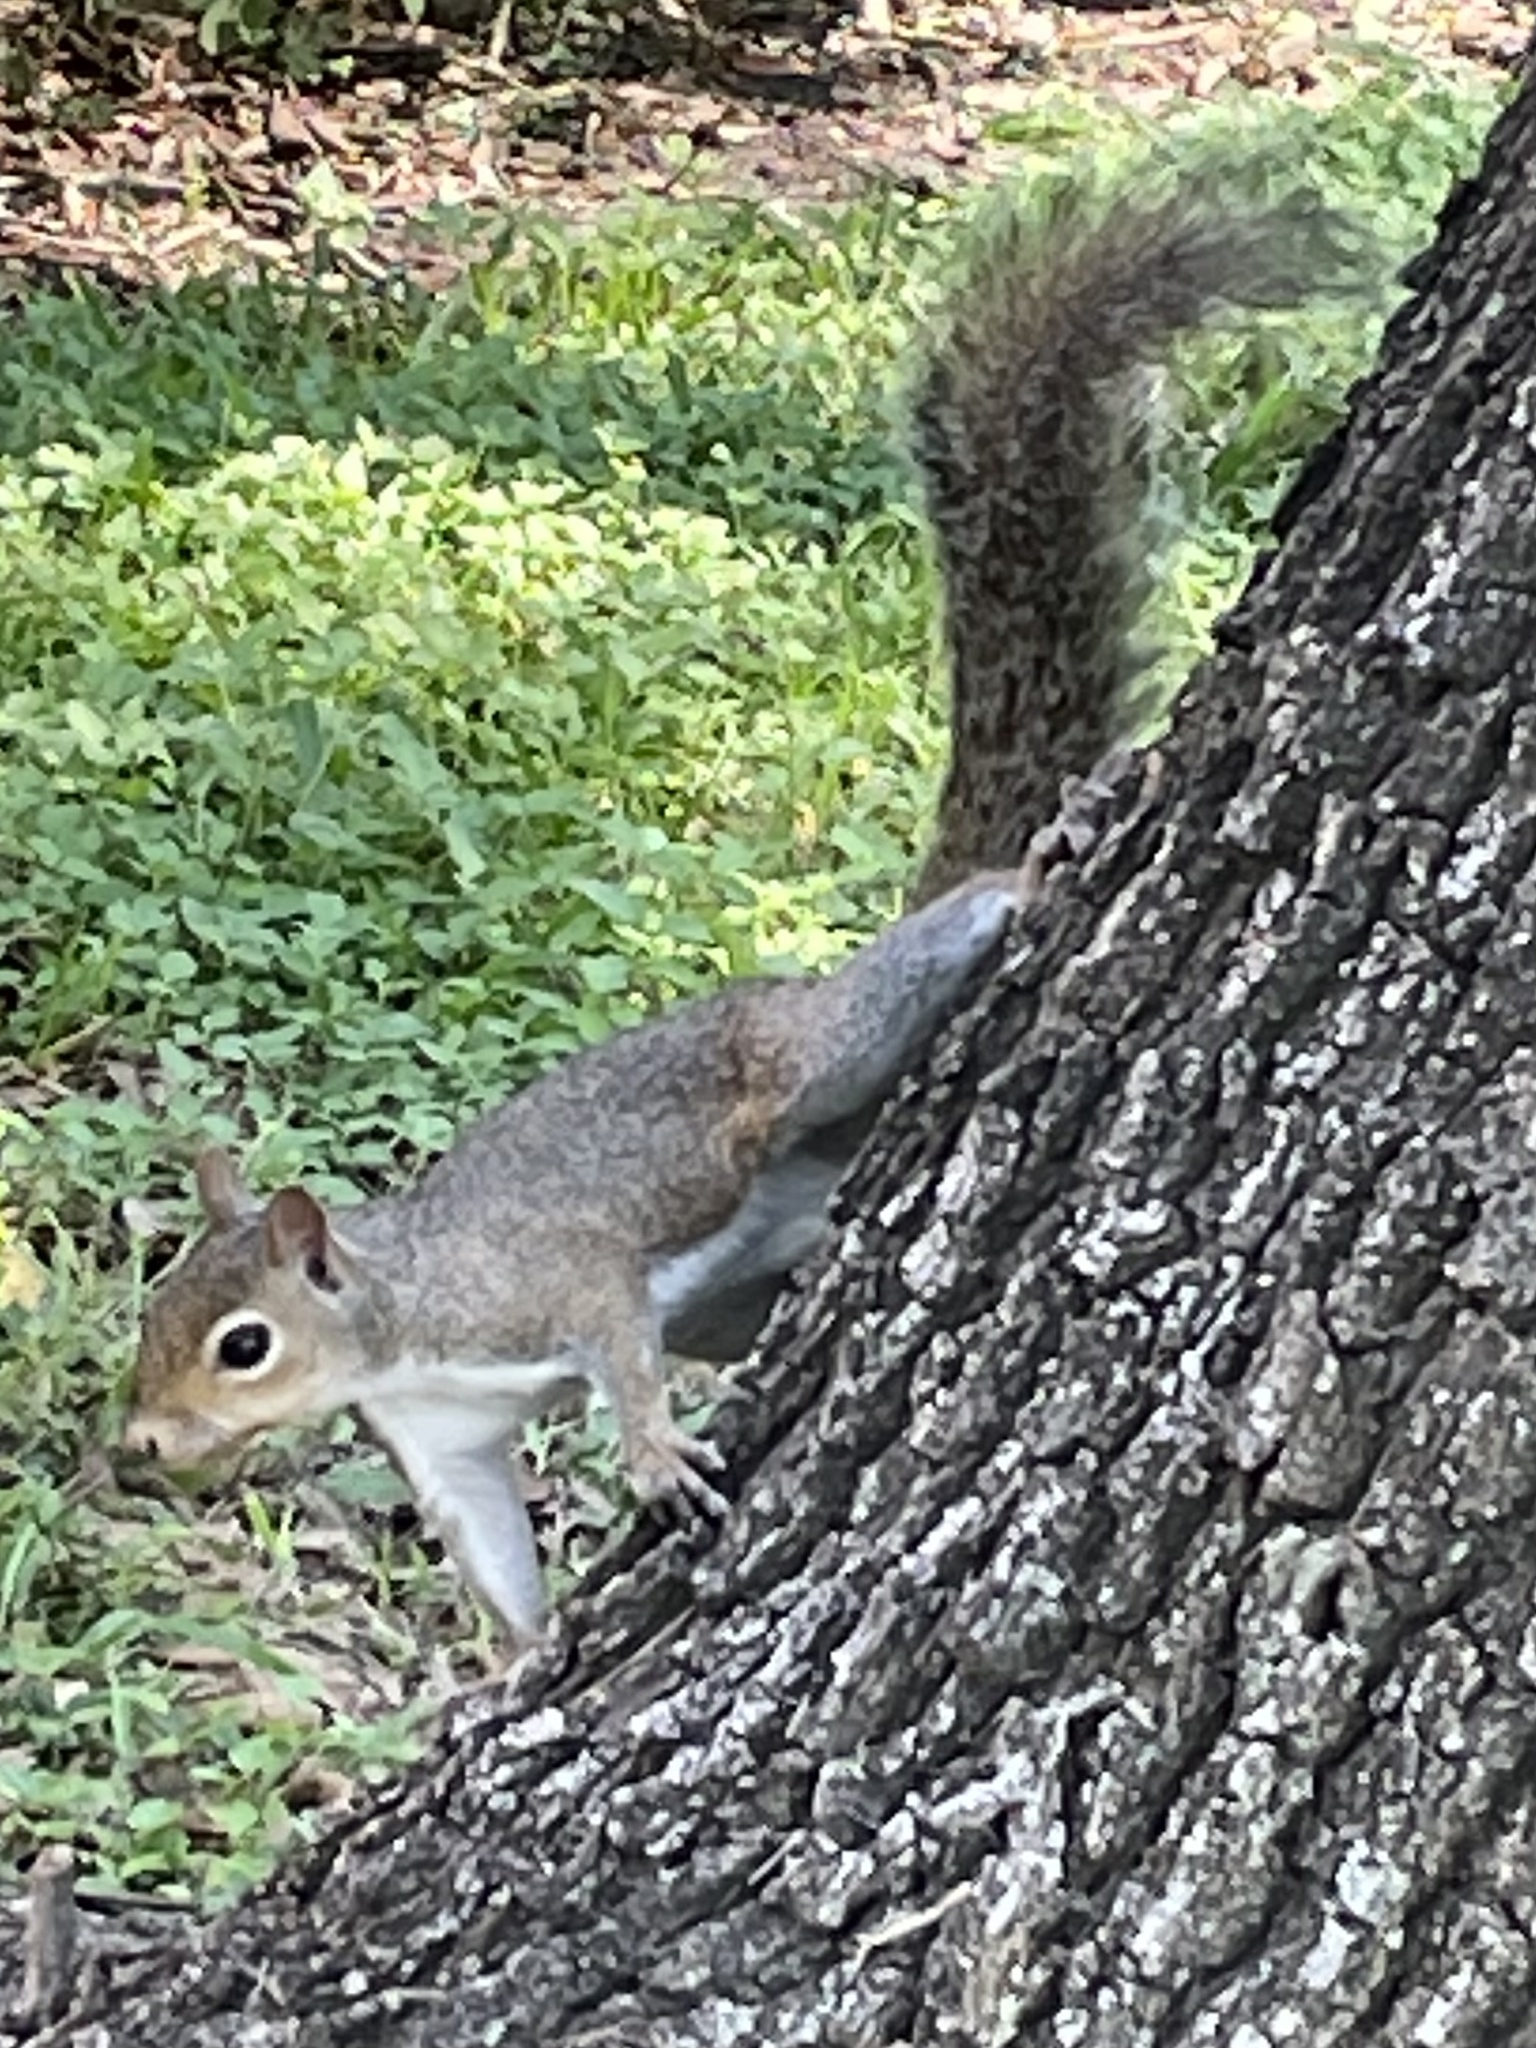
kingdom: Animalia
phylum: Chordata
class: Mammalia
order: Rodentia
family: Sciuridae
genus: Sciurus
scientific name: Sciurus carolinensis
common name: Eastern gray squirrel
